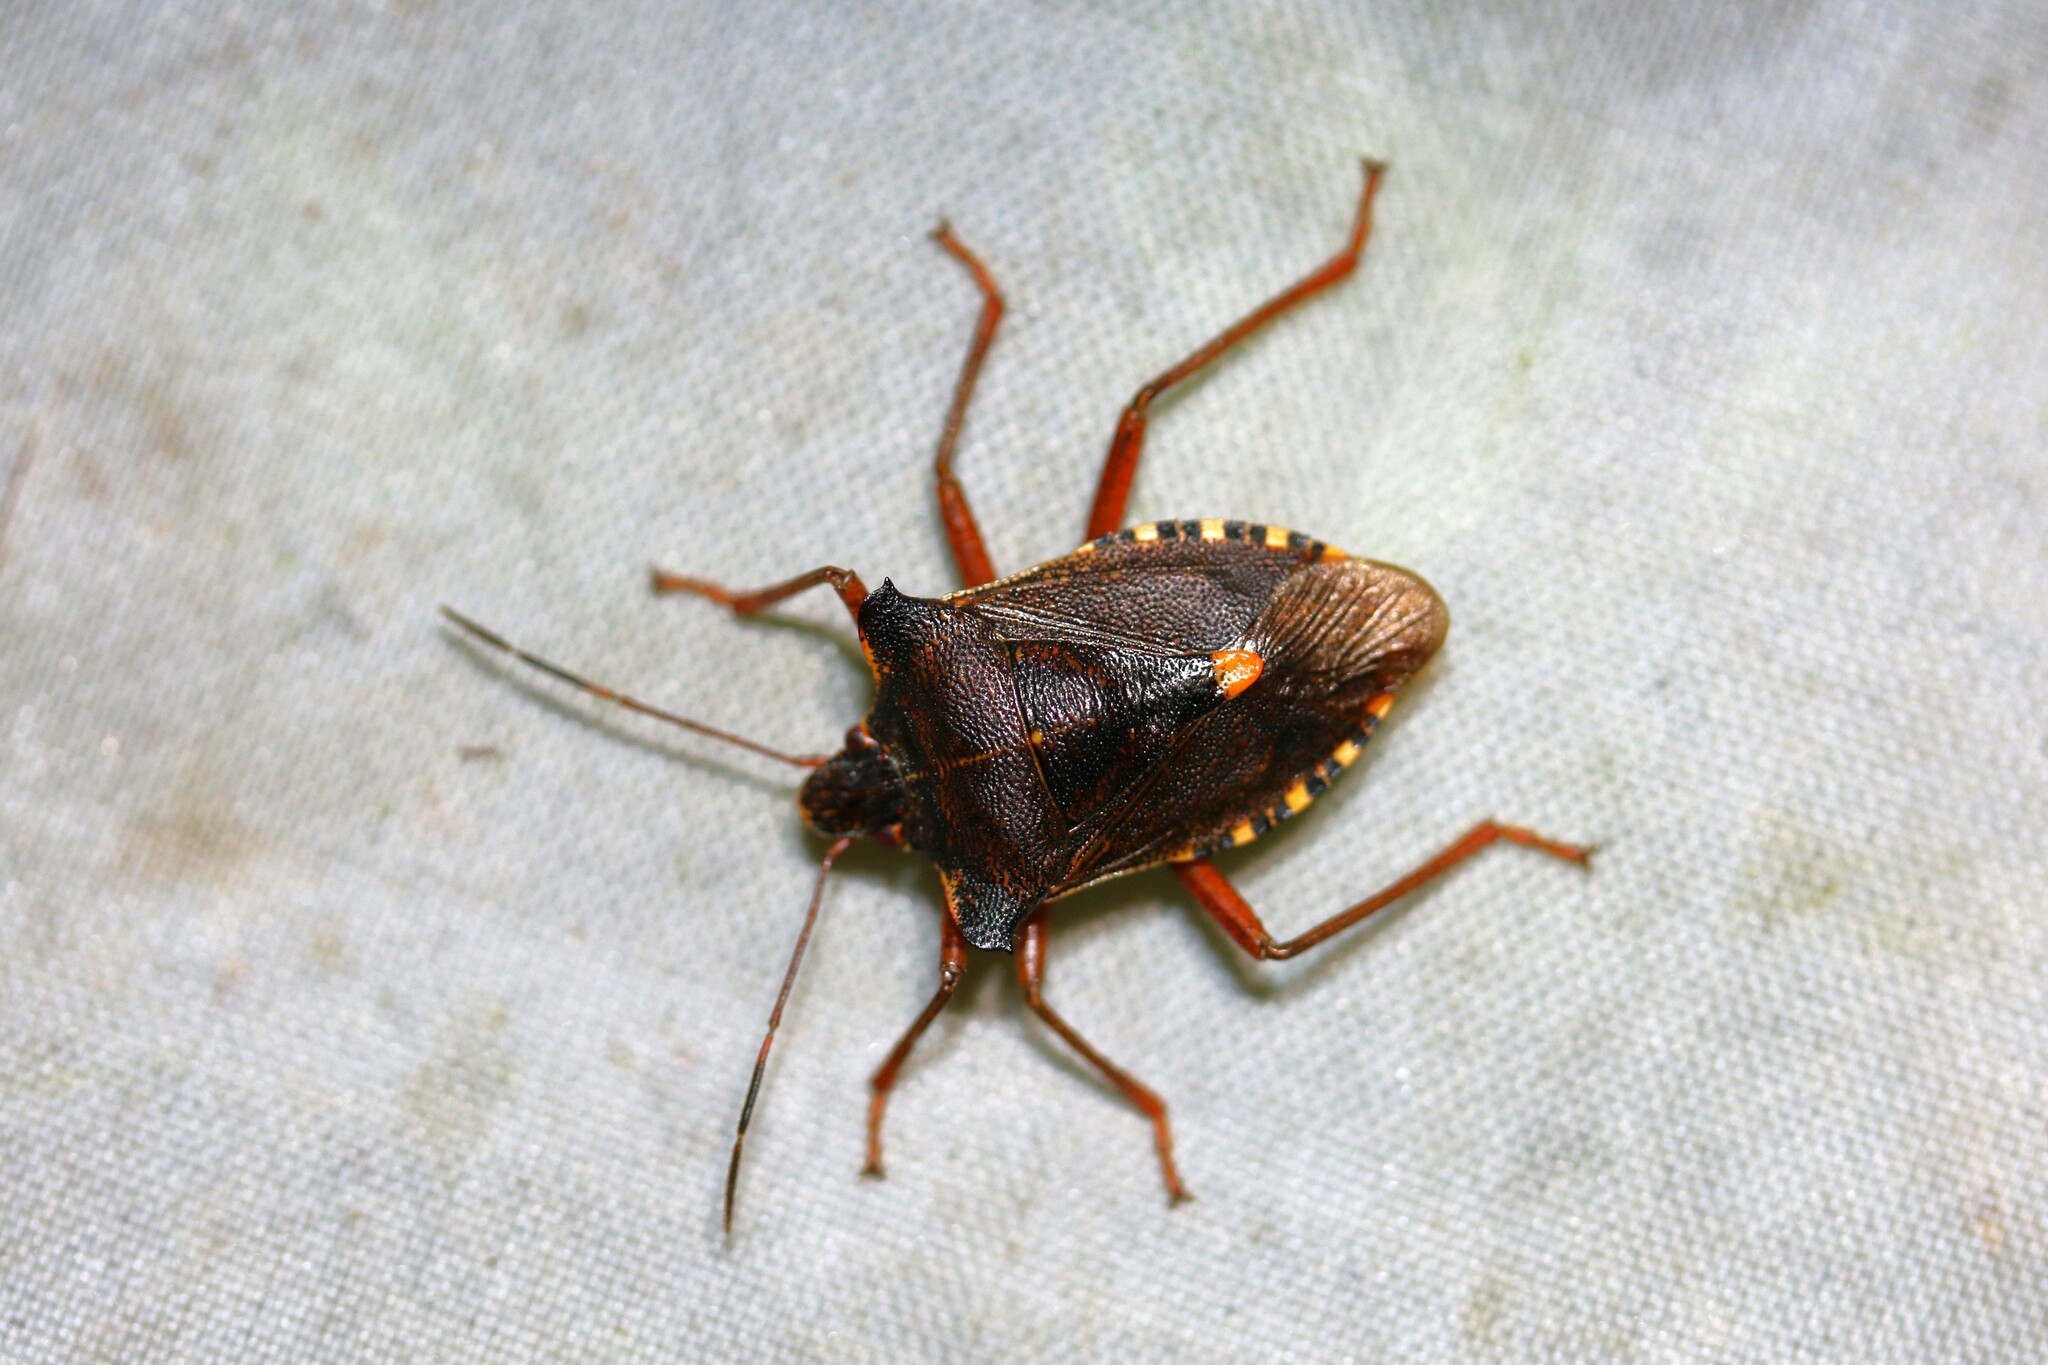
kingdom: Animalia
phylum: Arthropoda
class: Insecta
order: Hemiptera
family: Pentatomidae
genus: Pentatoma
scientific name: Pentatoma rufipes
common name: Forest bug
